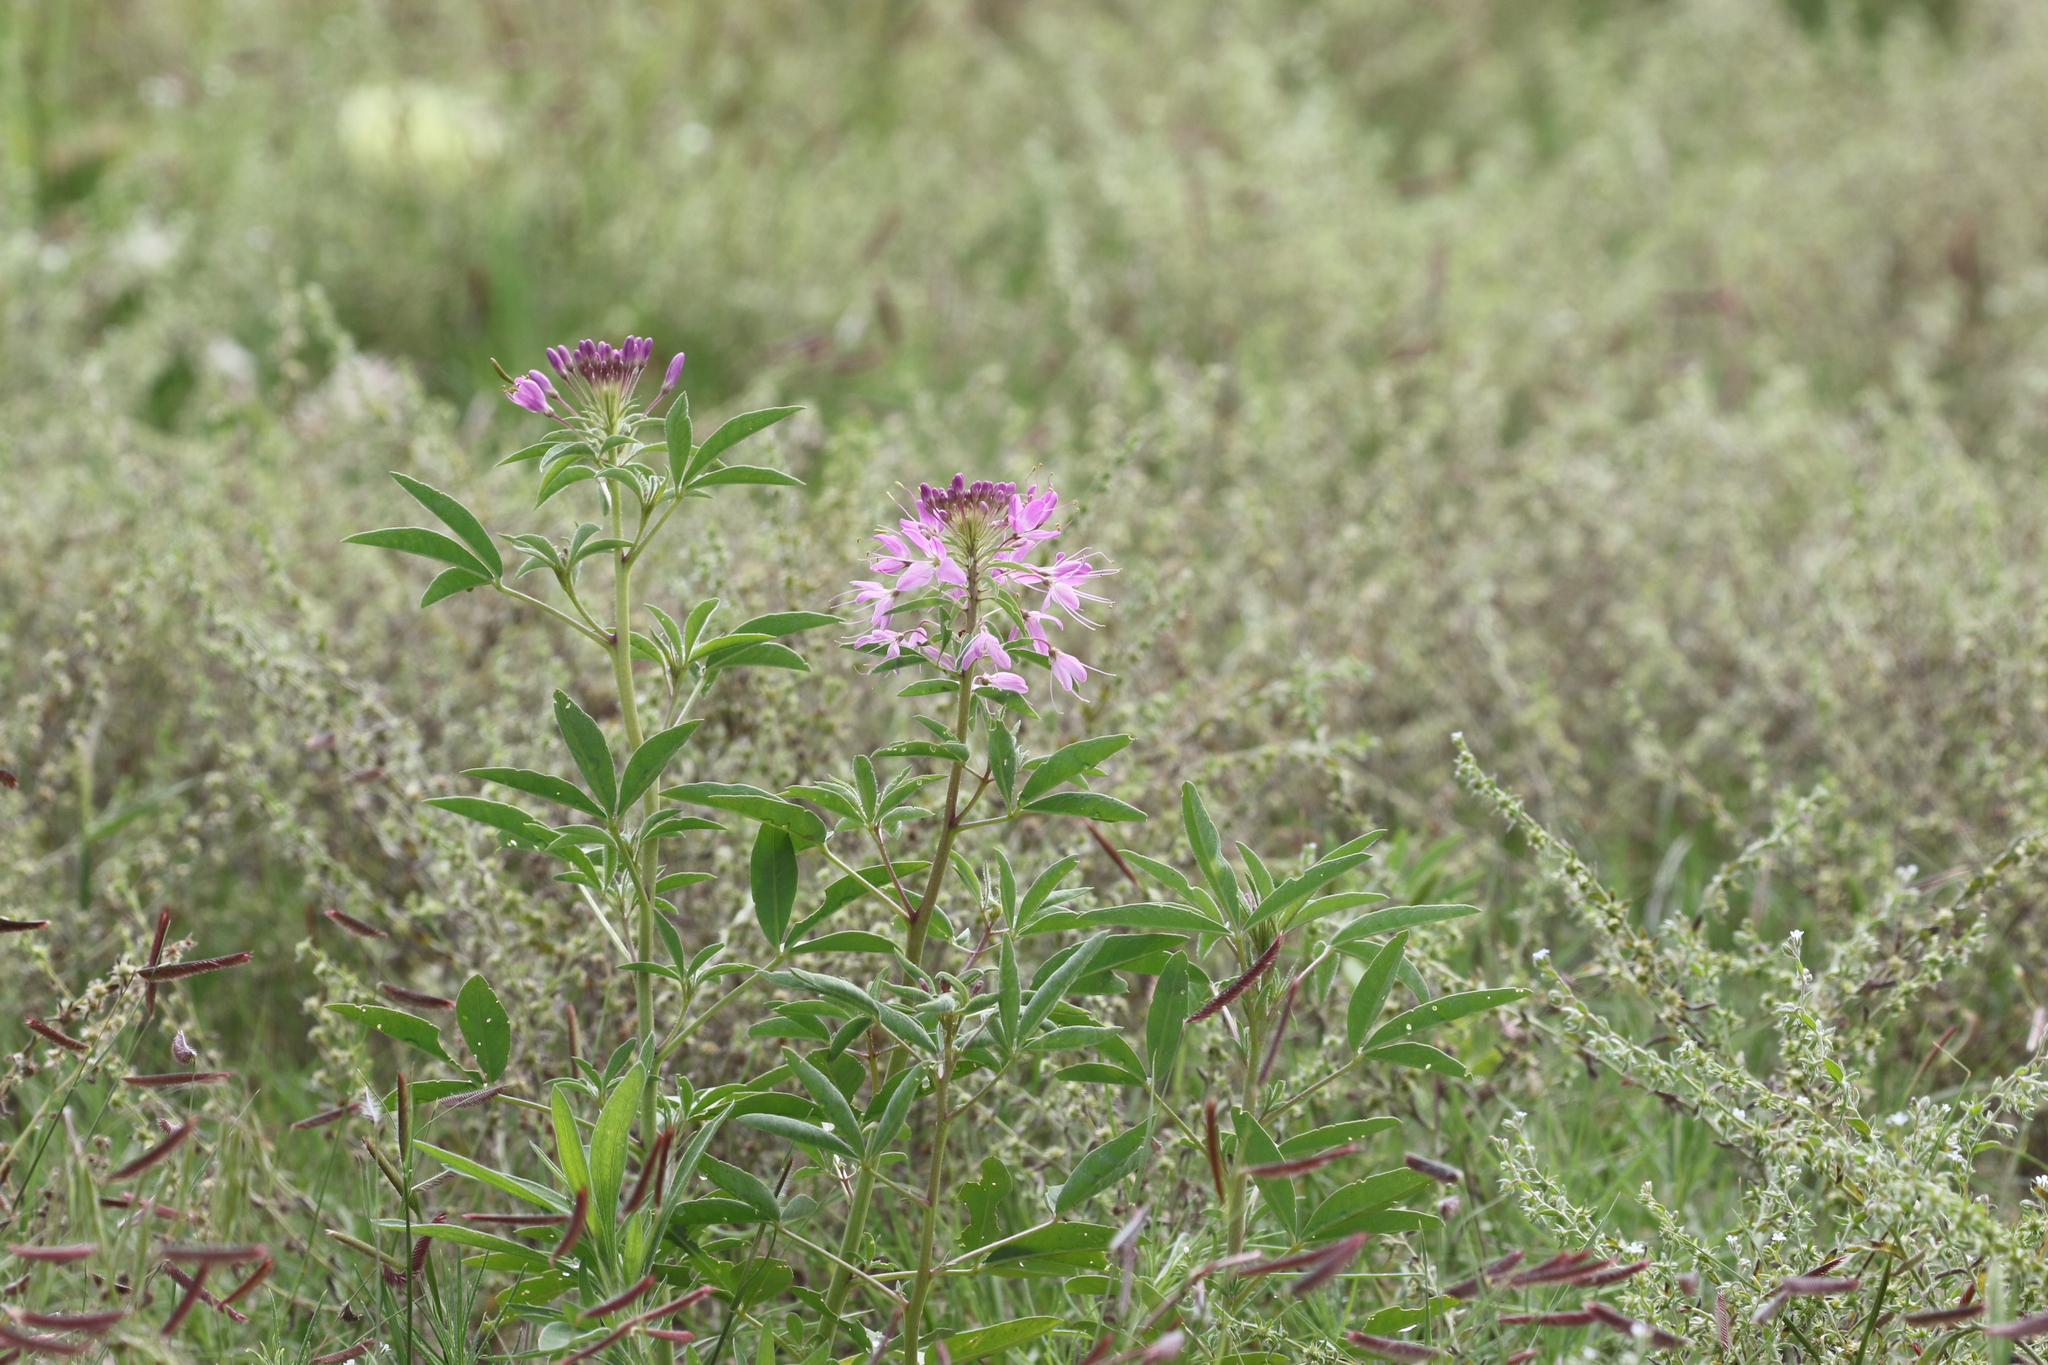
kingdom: Plantae
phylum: Tracheophyta
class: Magnoliopsida
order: Brassicales
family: Cleomaceae
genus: Cleomella
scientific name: Cleomella serrulata
